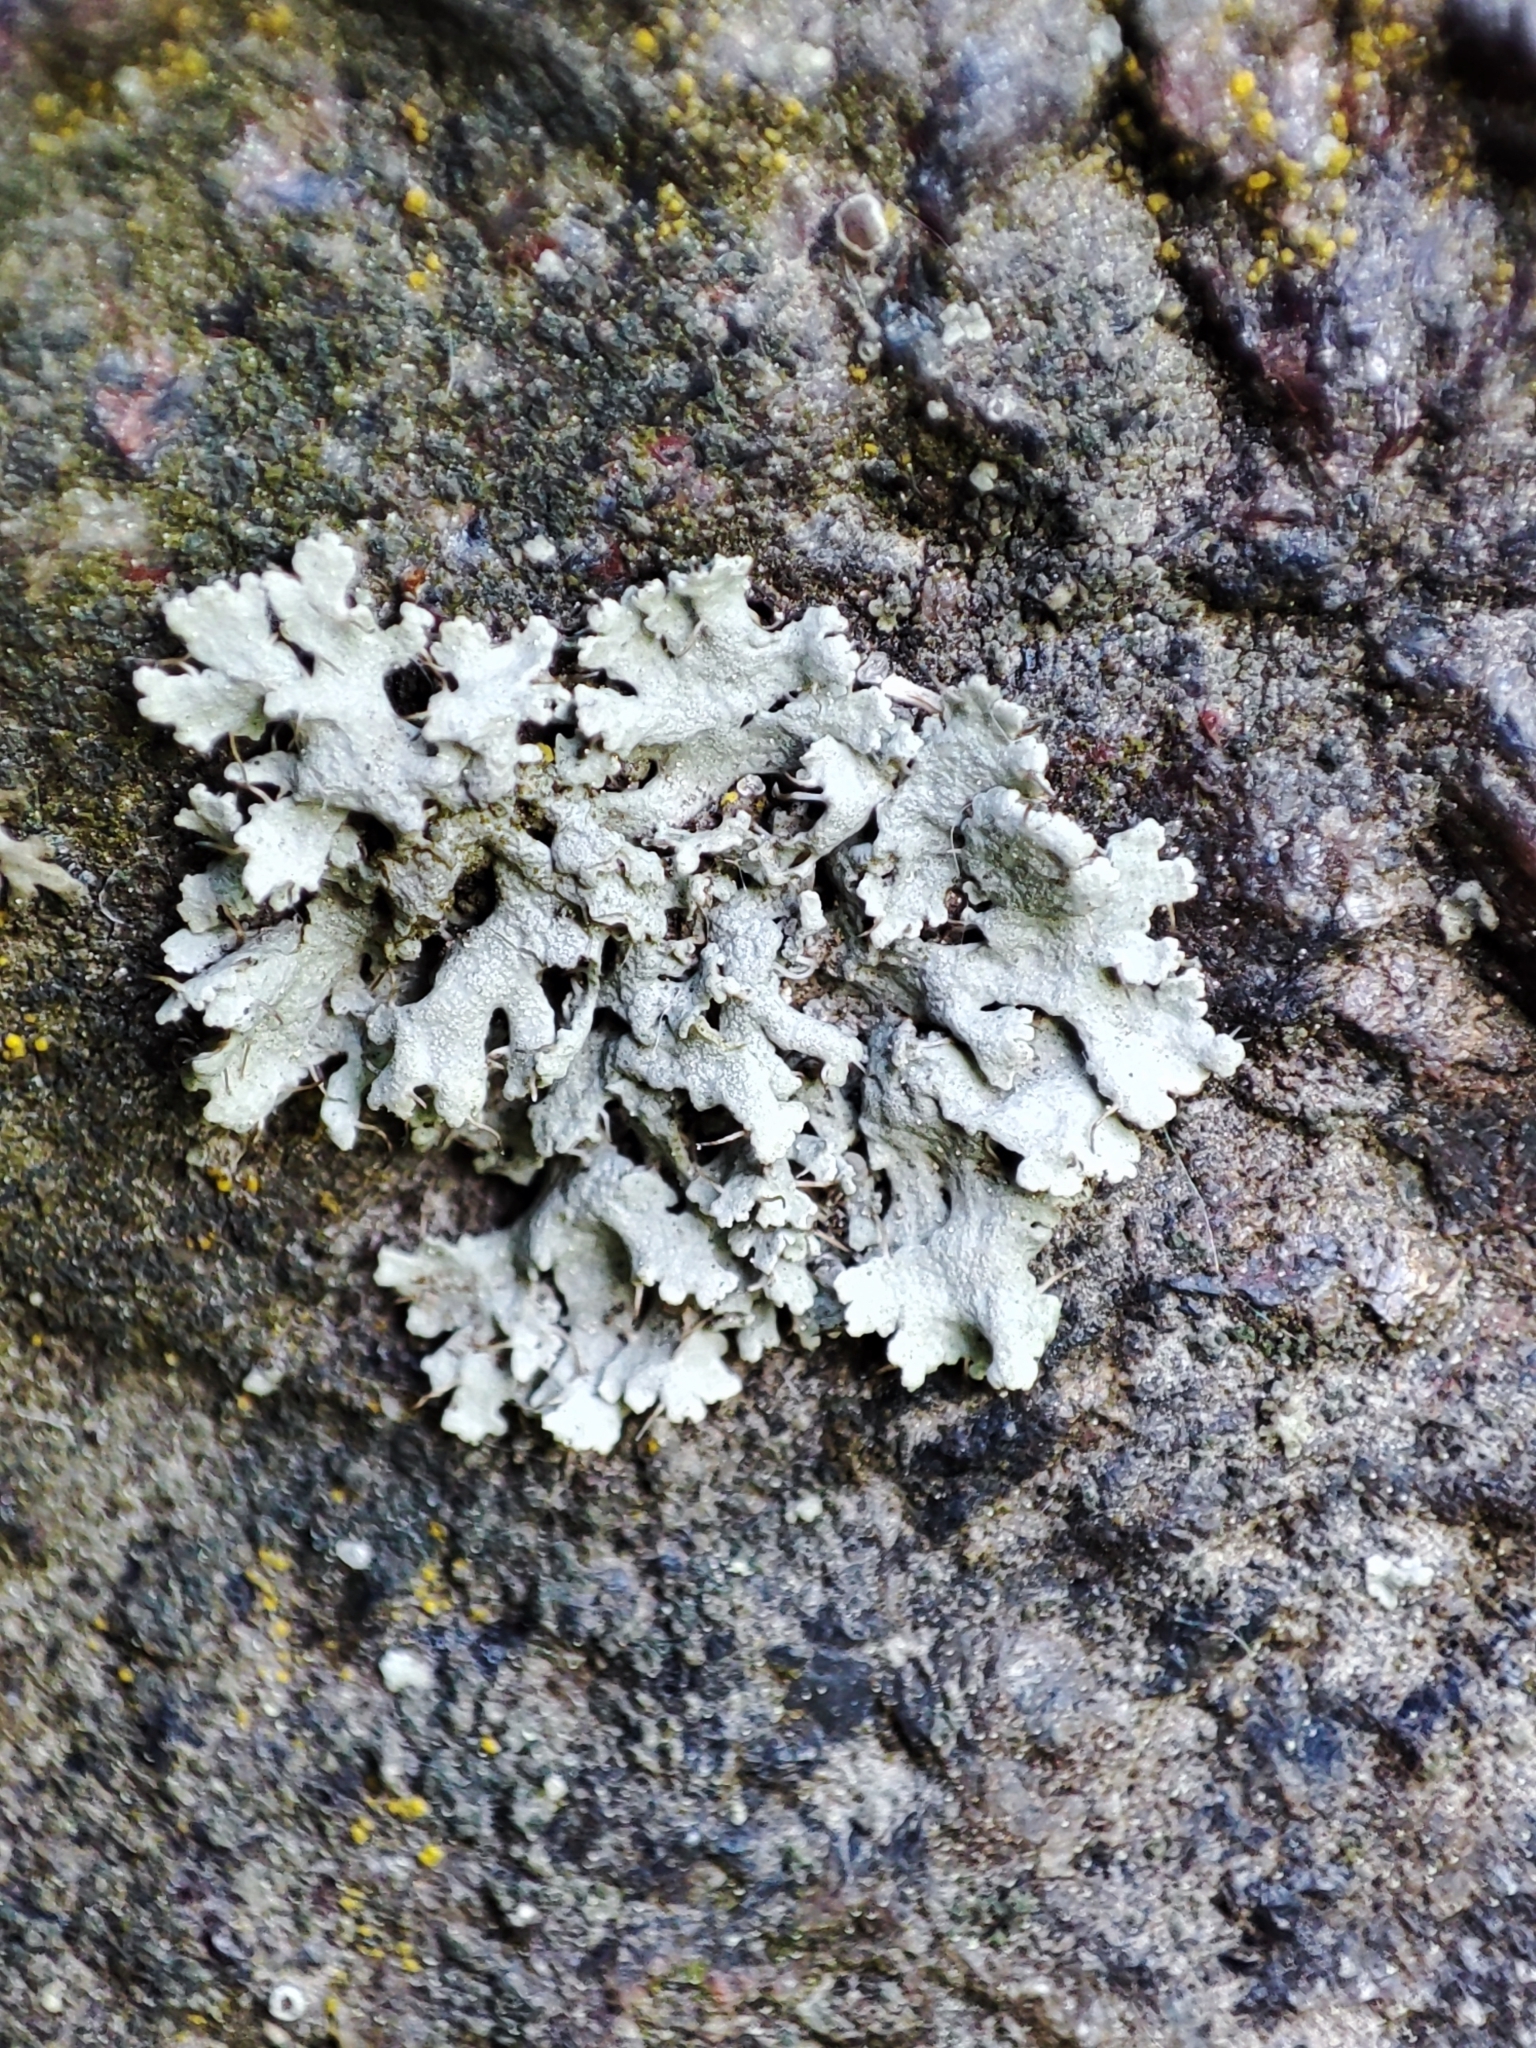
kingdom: Fungi
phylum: Ascomycota
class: Lecanoromycetes
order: Caliciales
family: Physciaceae
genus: Physcia
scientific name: Physcia adscendens
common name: Hooded rosette lichen
